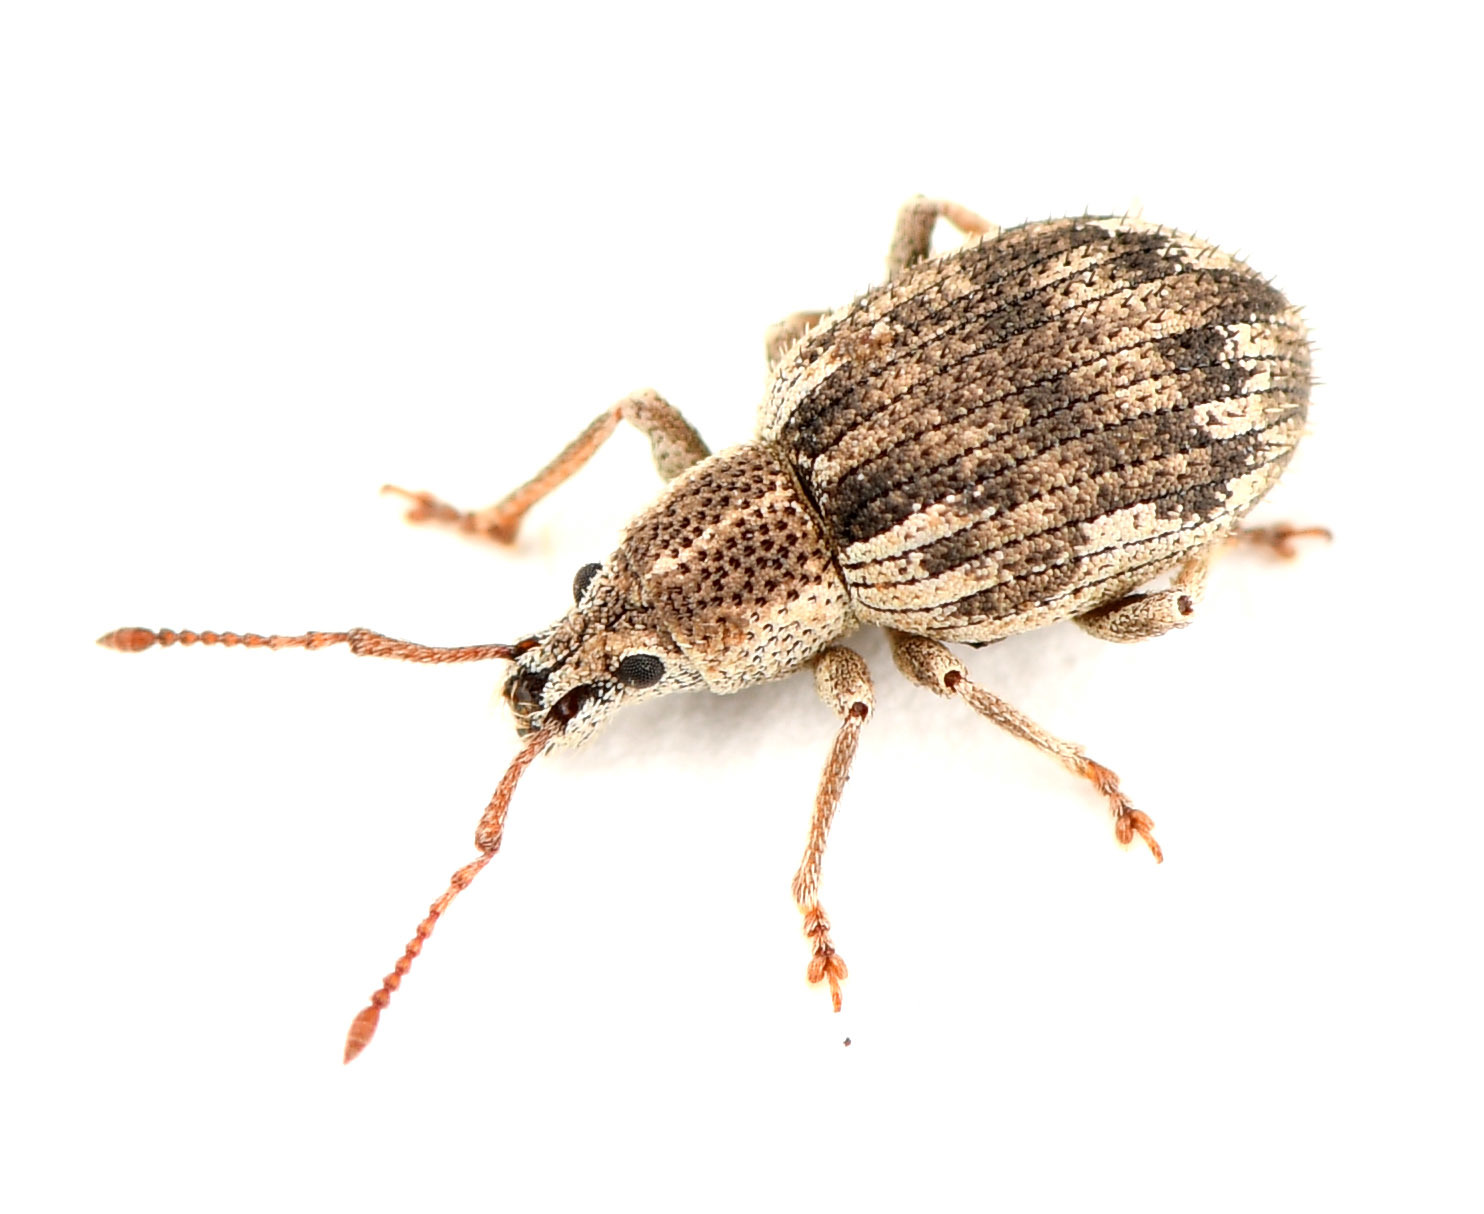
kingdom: Animalia
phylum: Arthropoda
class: Insecta
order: Coleoptera
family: Curculionidae
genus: Peritelinus
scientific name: Peritelinus oregonus
